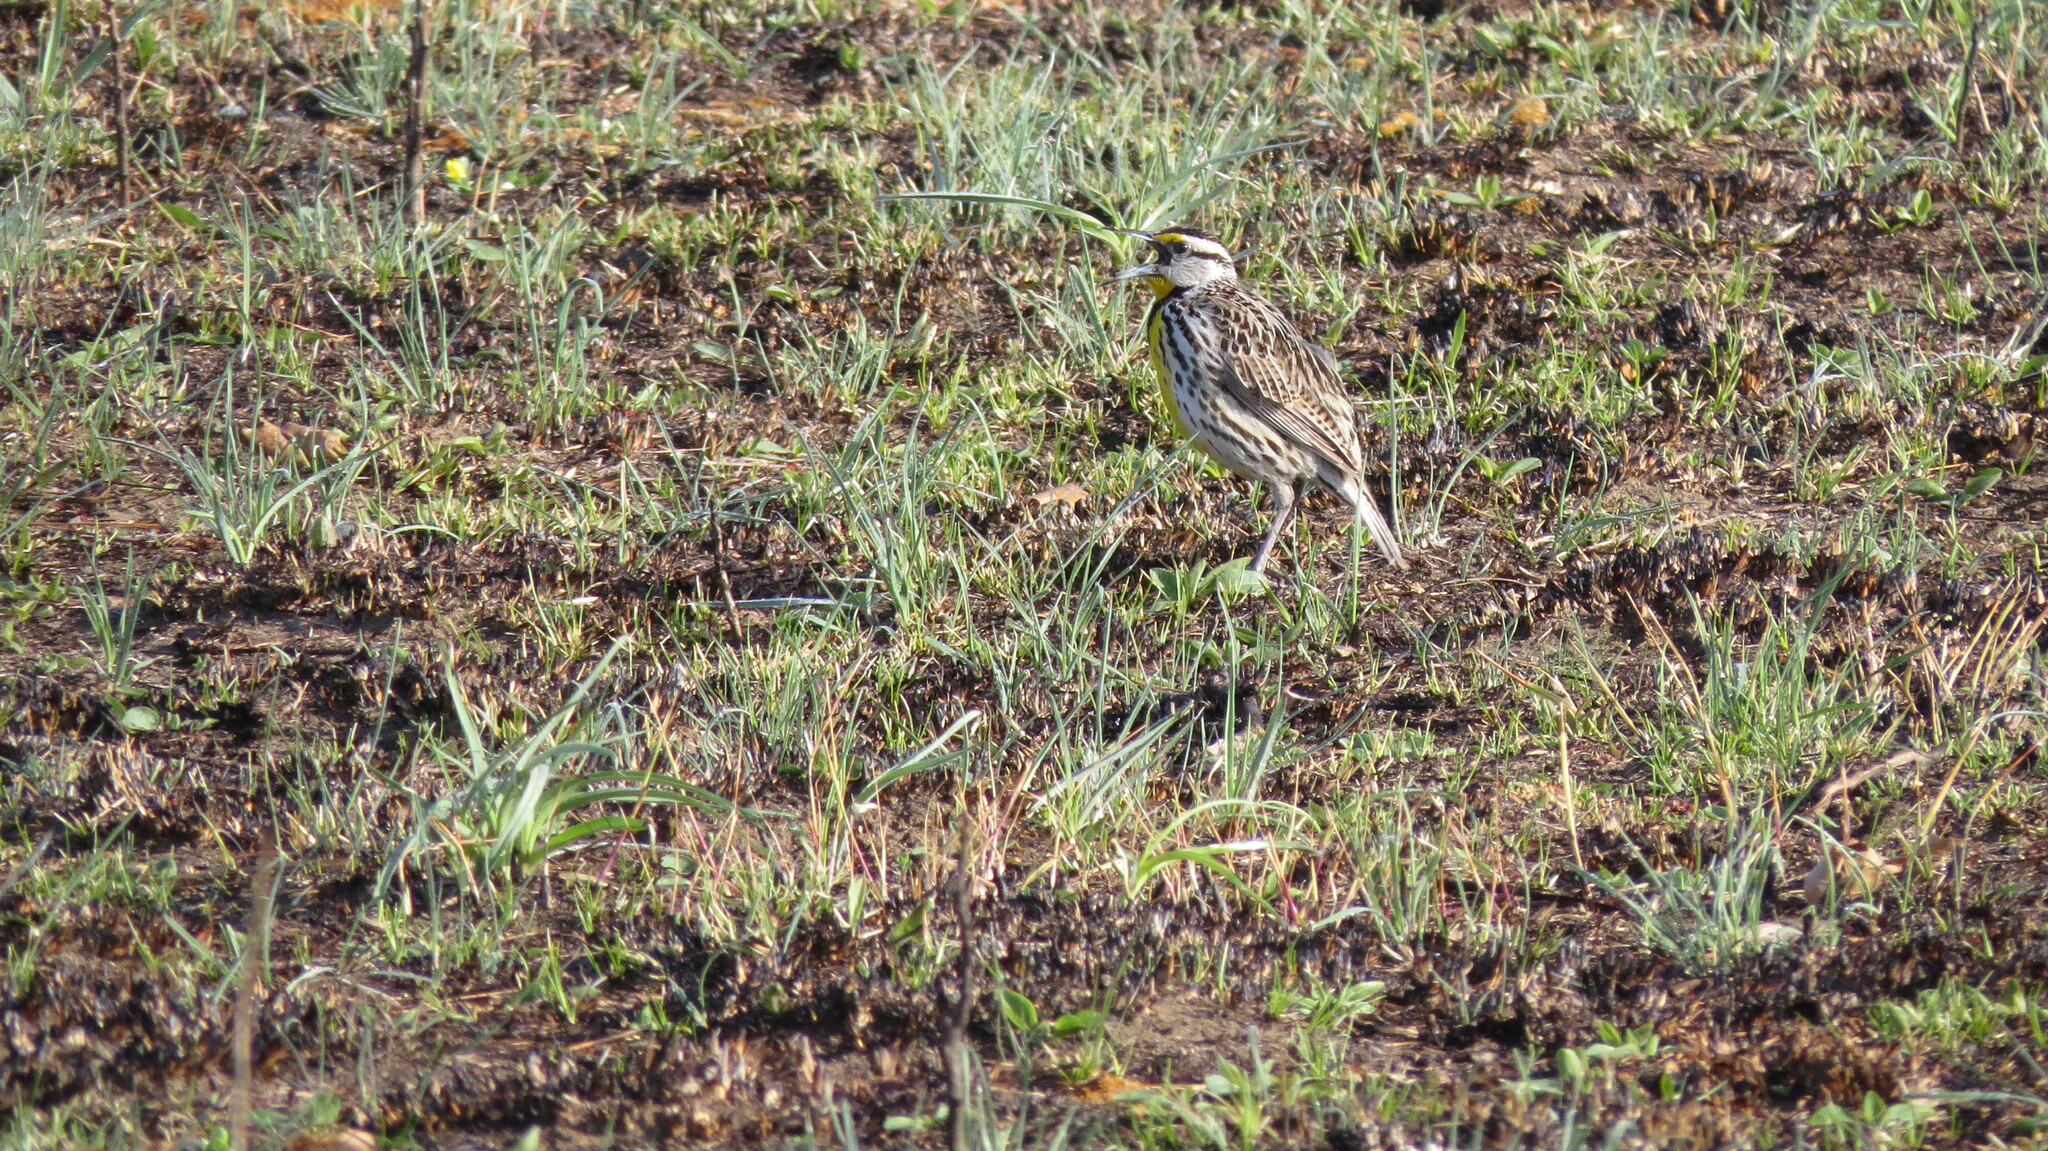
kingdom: Animalia
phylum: Chordata
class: Aves
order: Passeriformes
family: Icteridae
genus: Sturnella
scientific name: Sturnella magna
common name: Eastern meadowlark
